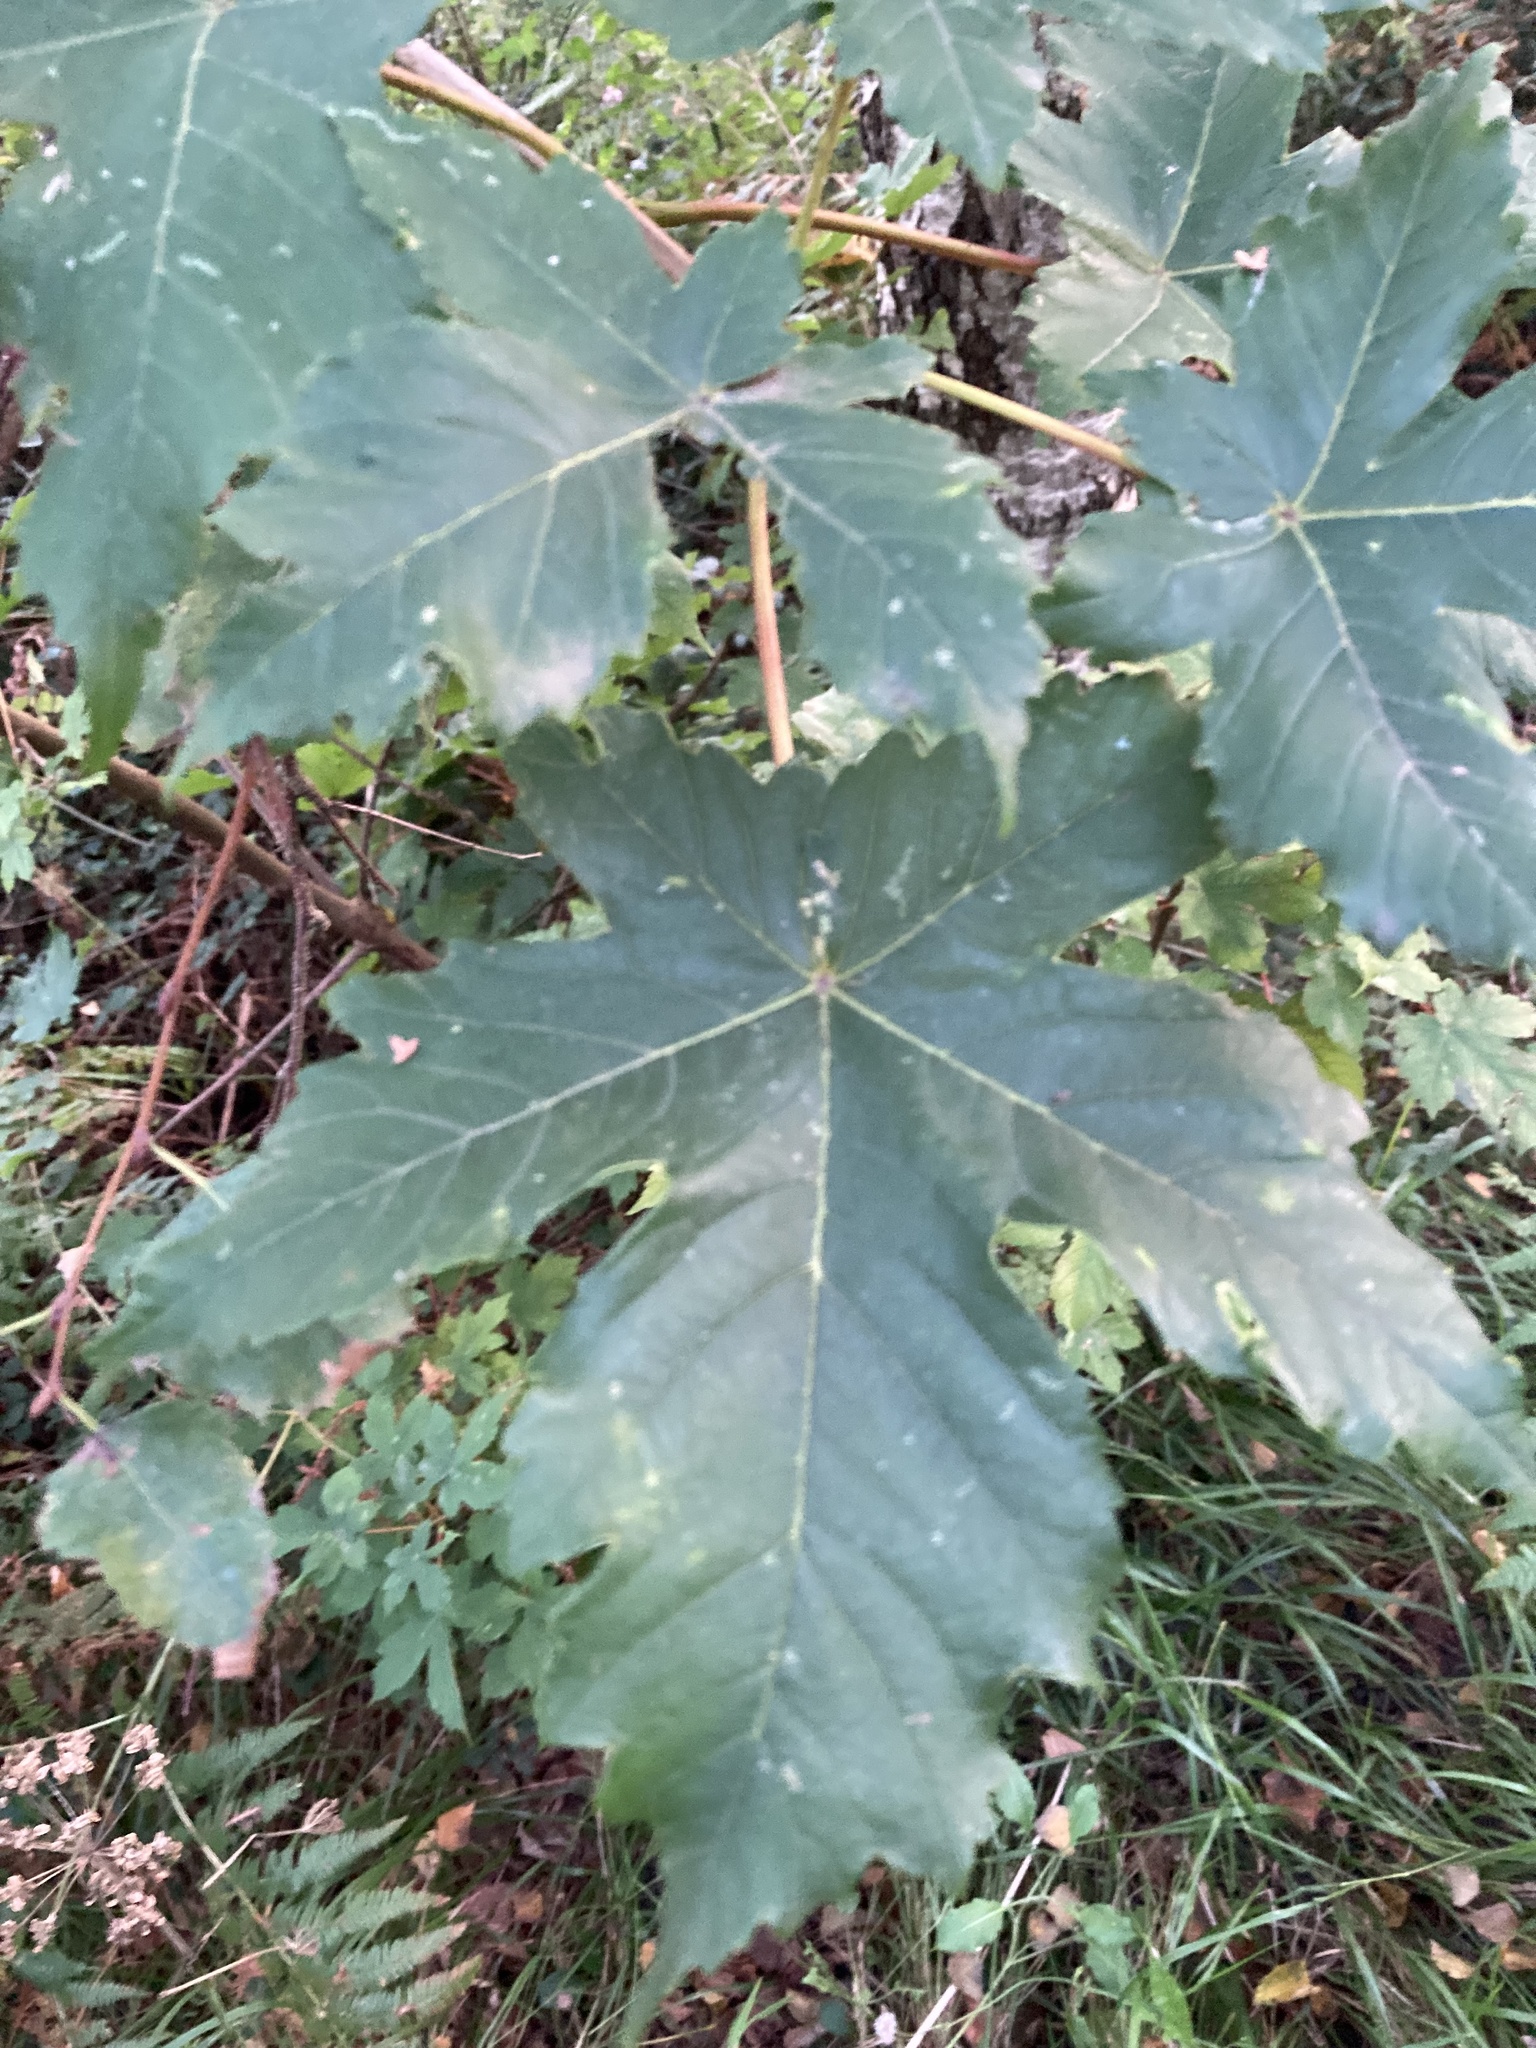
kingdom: Plantae
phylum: Tracheophyta
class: Magnoliopsida
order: Sapindales
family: Sapindaceae
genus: Acer
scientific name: Acer pseudoplatanus
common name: Sycamore
